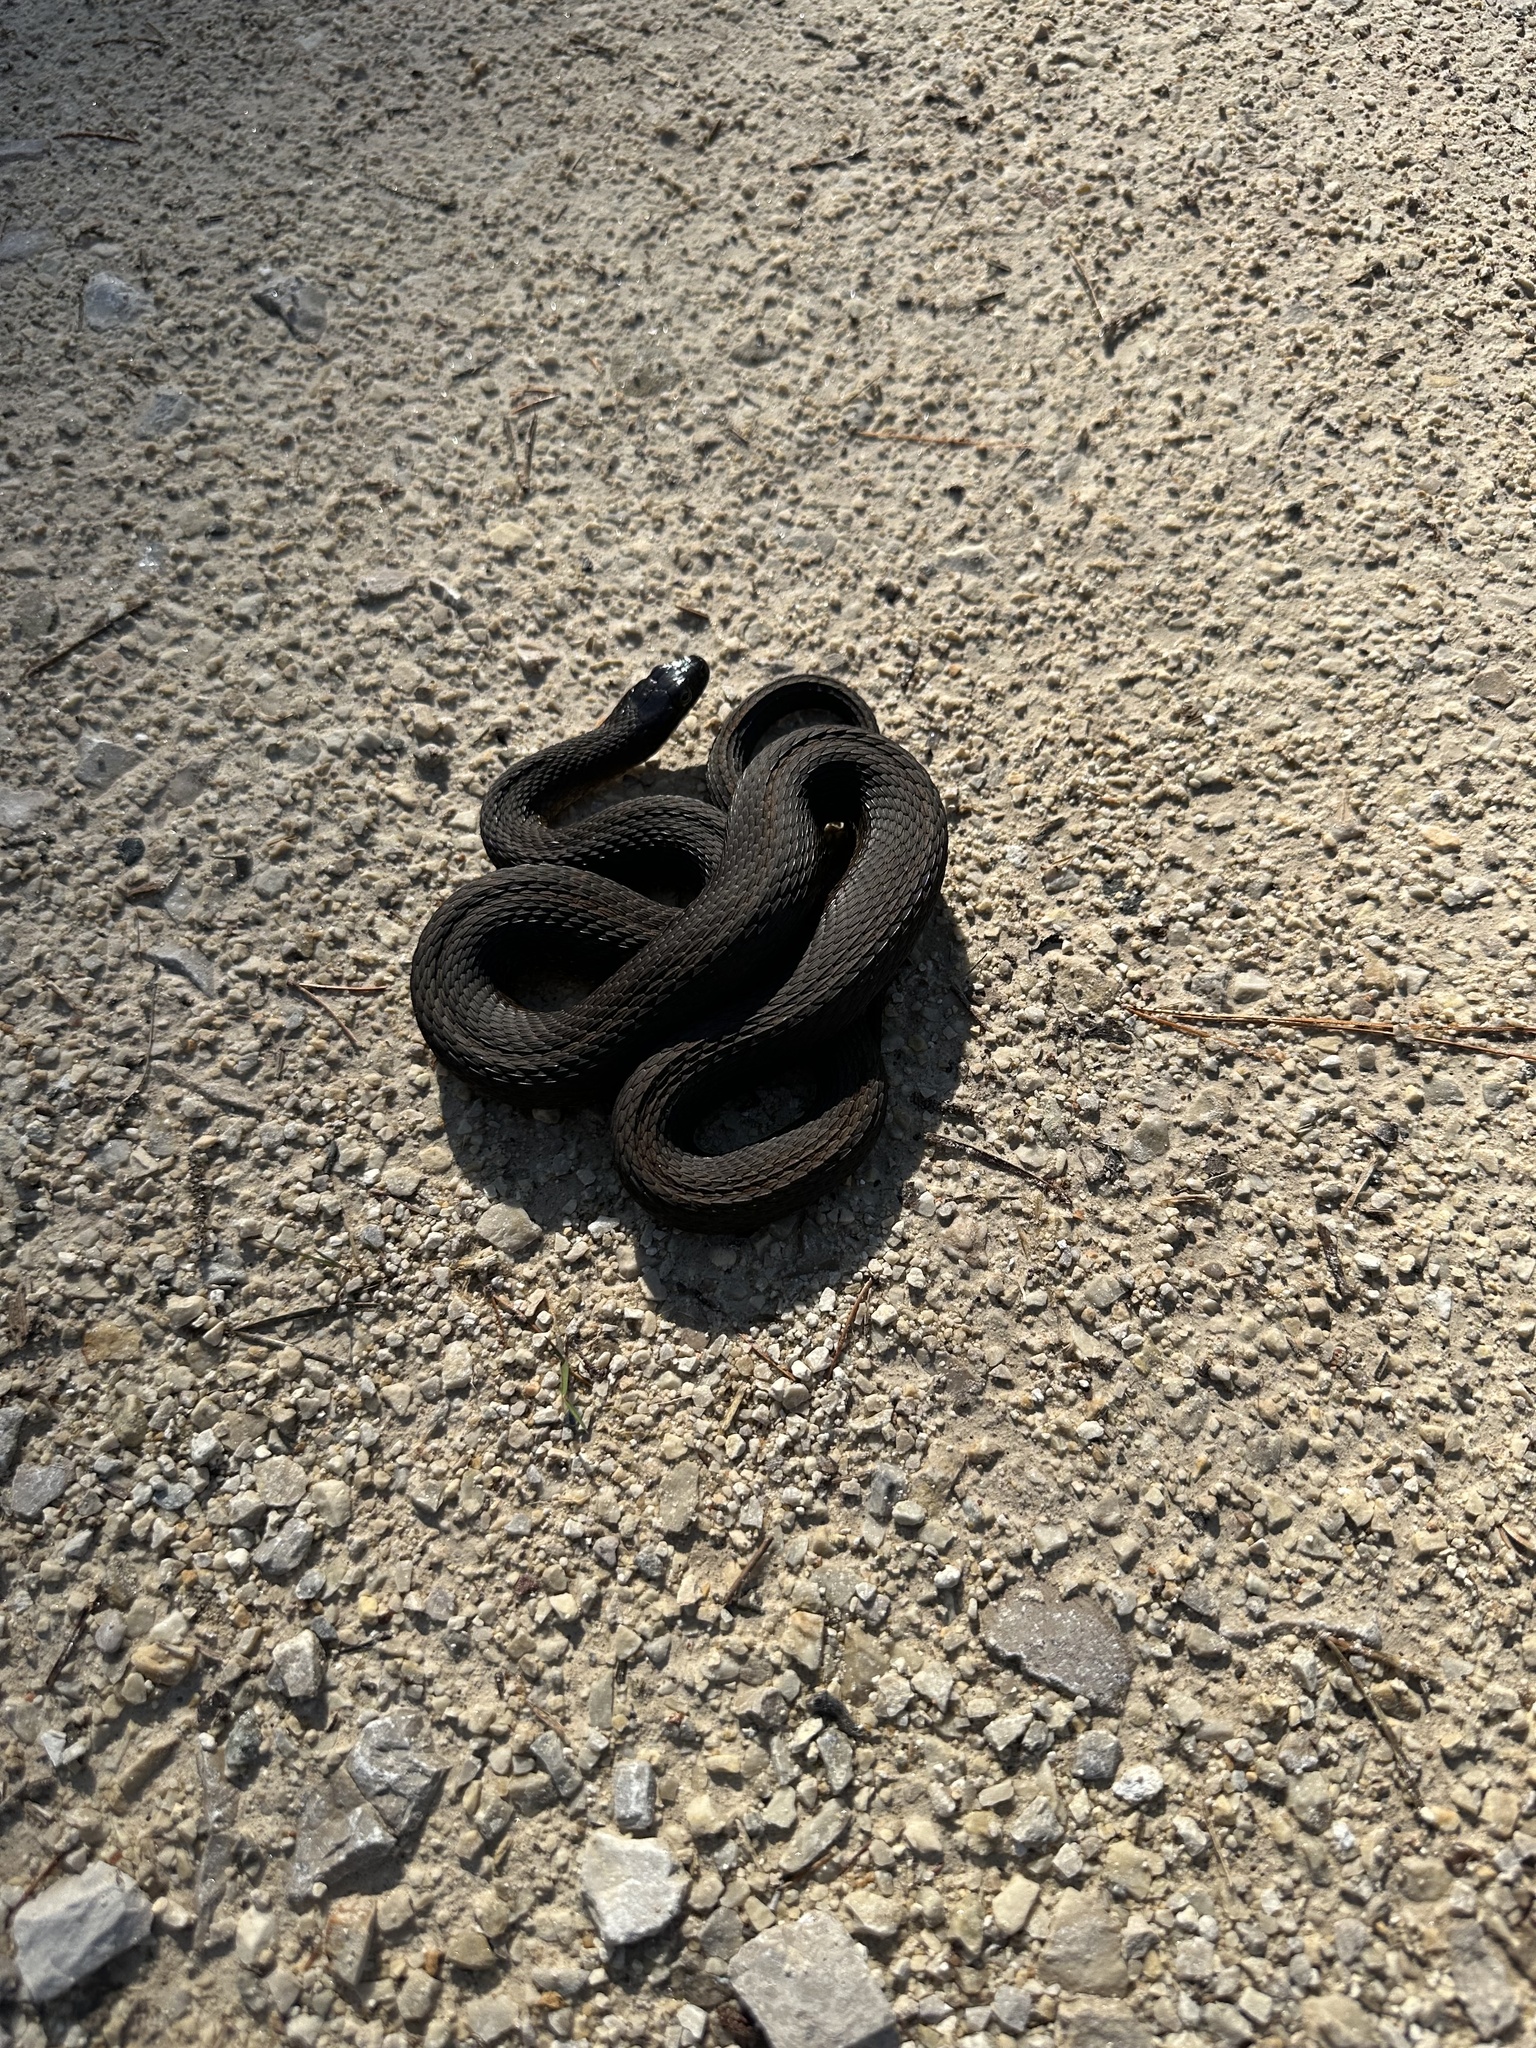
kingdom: Animalia
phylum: Chordata
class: Squamata
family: Colubridae
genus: Nerodia
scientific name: Nerodia sipedon
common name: Northern water snake
